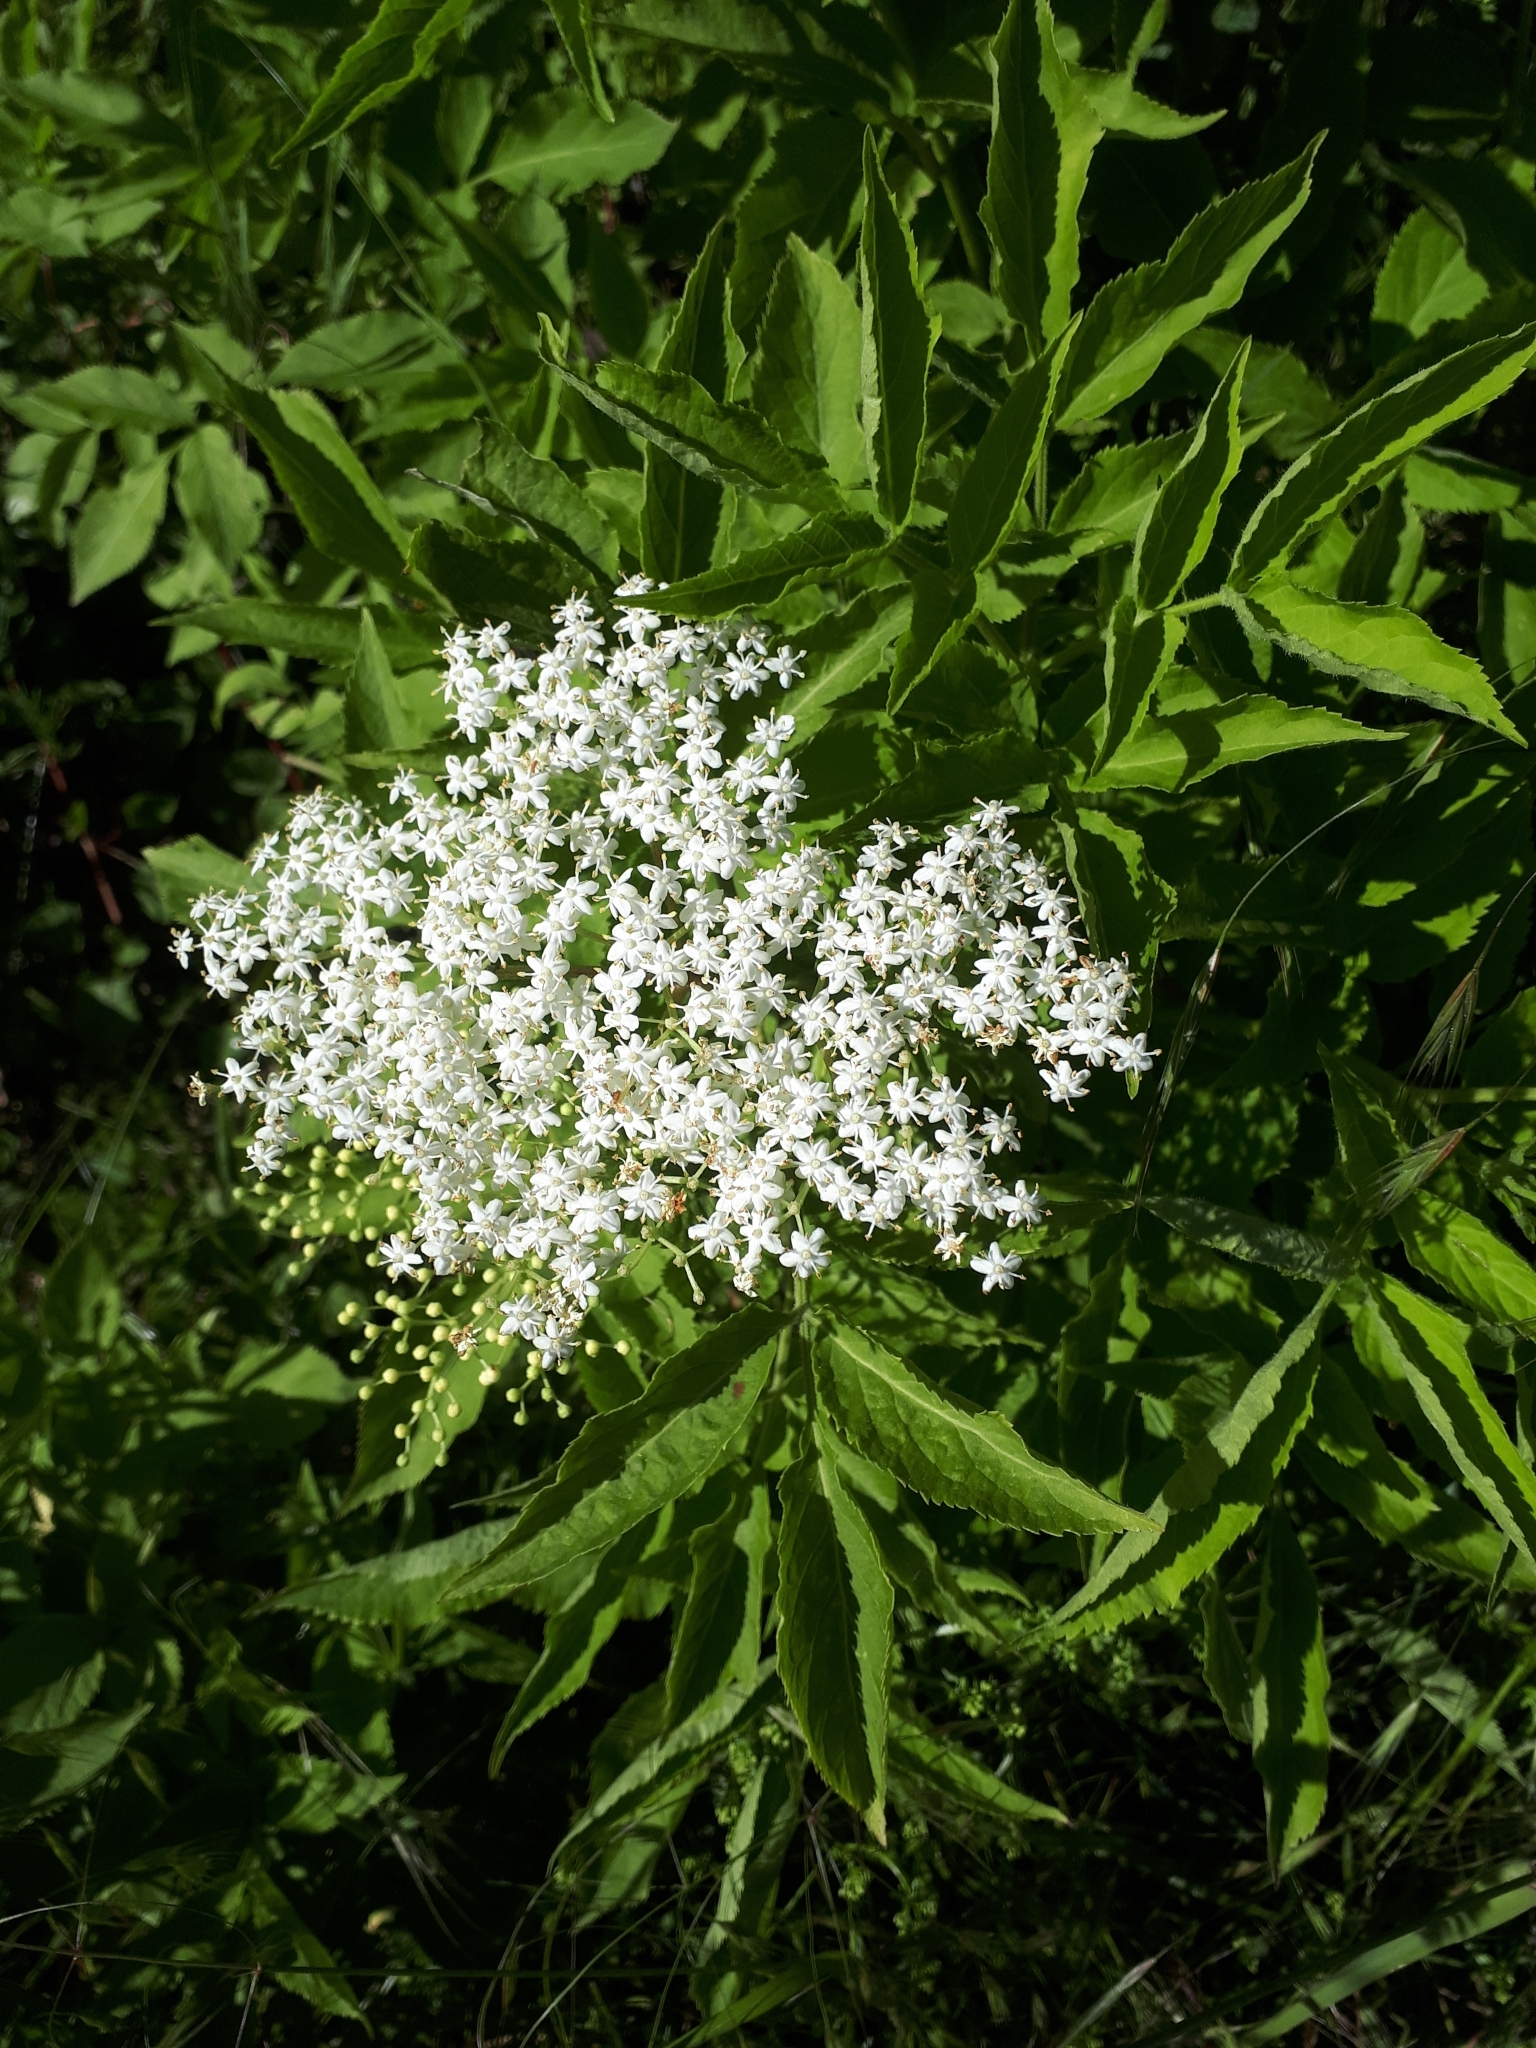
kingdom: Plantae
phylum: Tracheophyta
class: Magnoliopsida
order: Dipsacales
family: Viburnaceae
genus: Sambucus
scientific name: Sambucus nigra
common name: Elder
